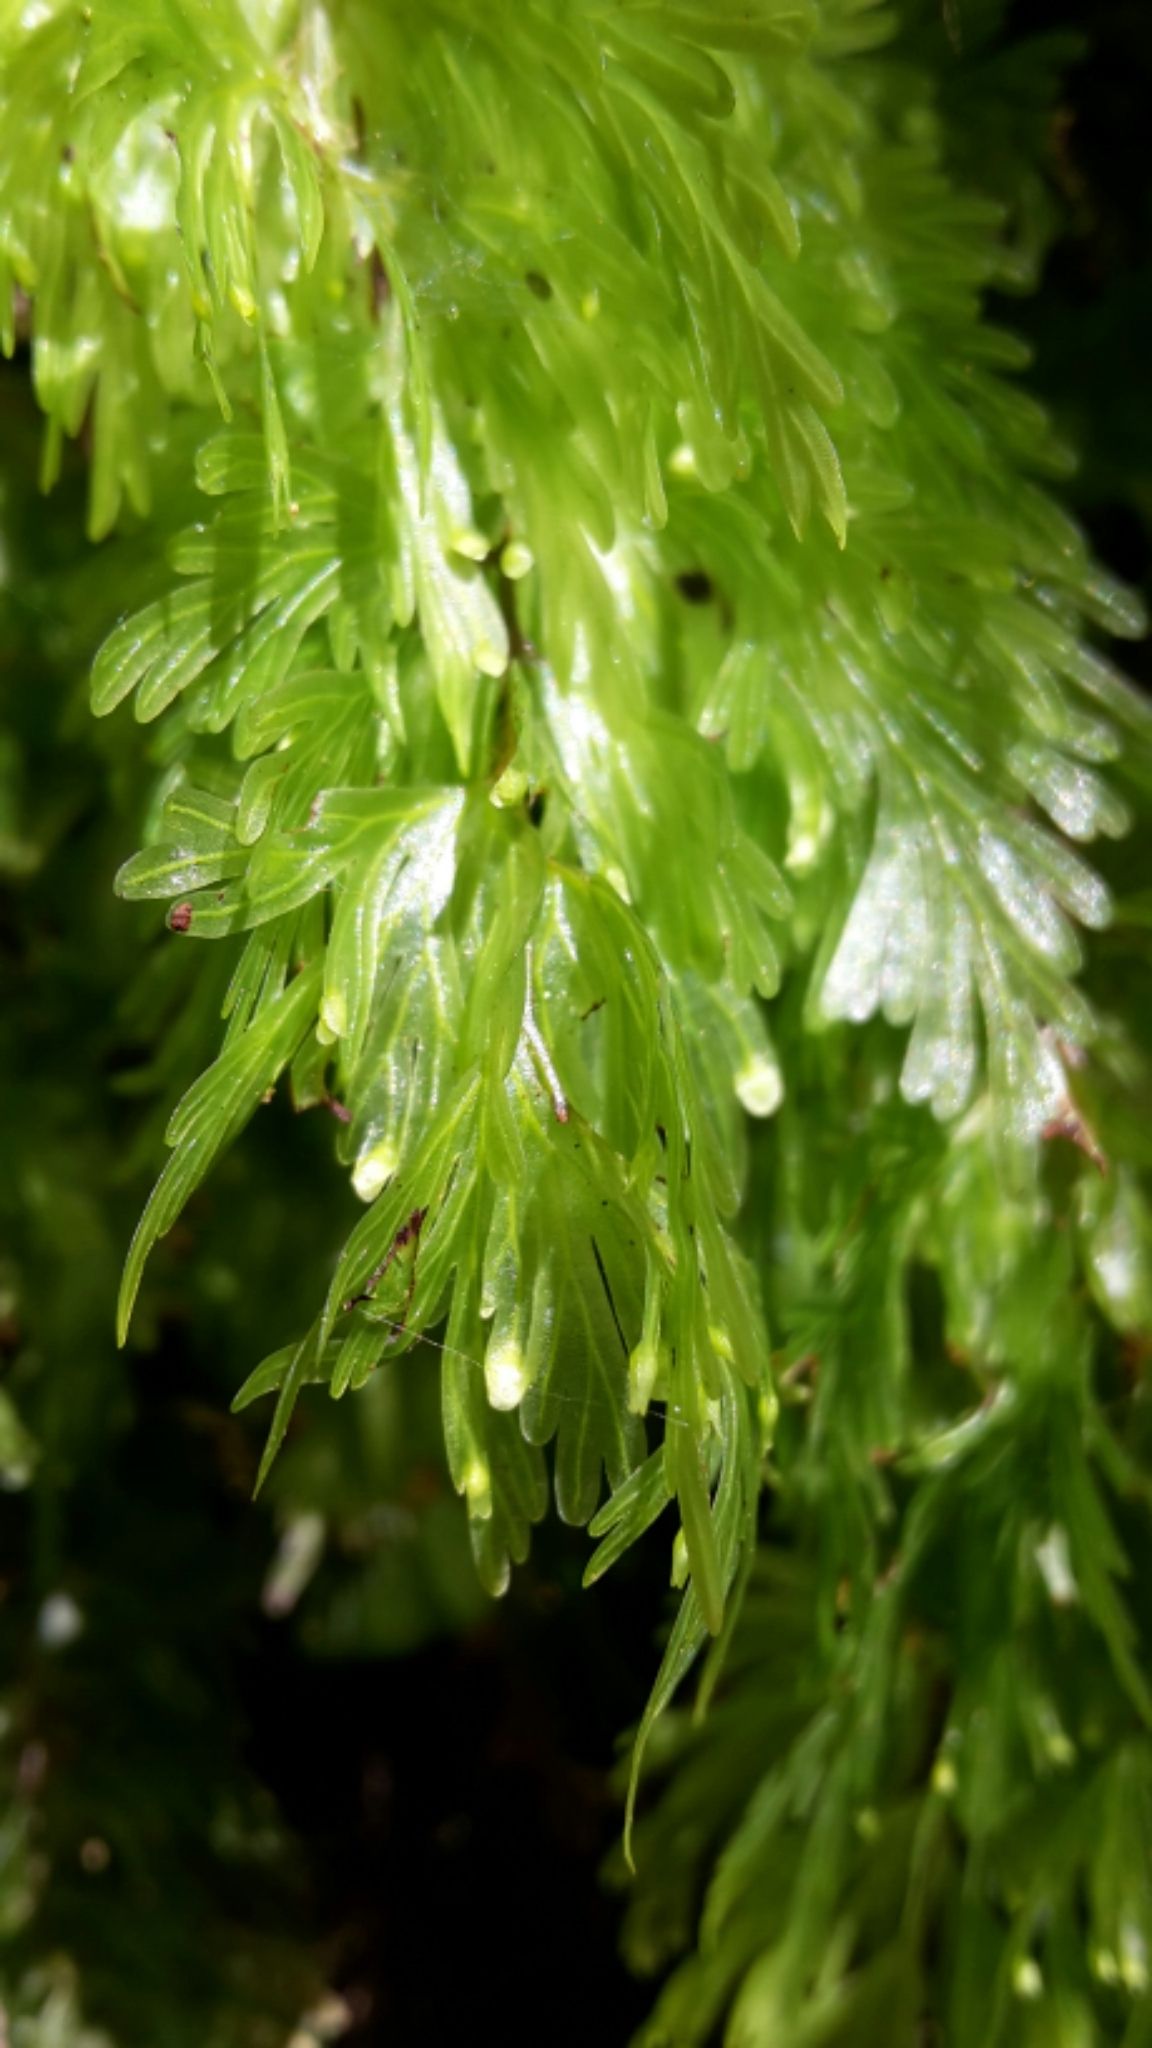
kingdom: Plantae
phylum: Tracheophyta
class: Polypodiopsida
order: Hymenophyllales
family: Hymenophyllaceae
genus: Hymenophyllum
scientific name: Hymenophyllum flabellatum
